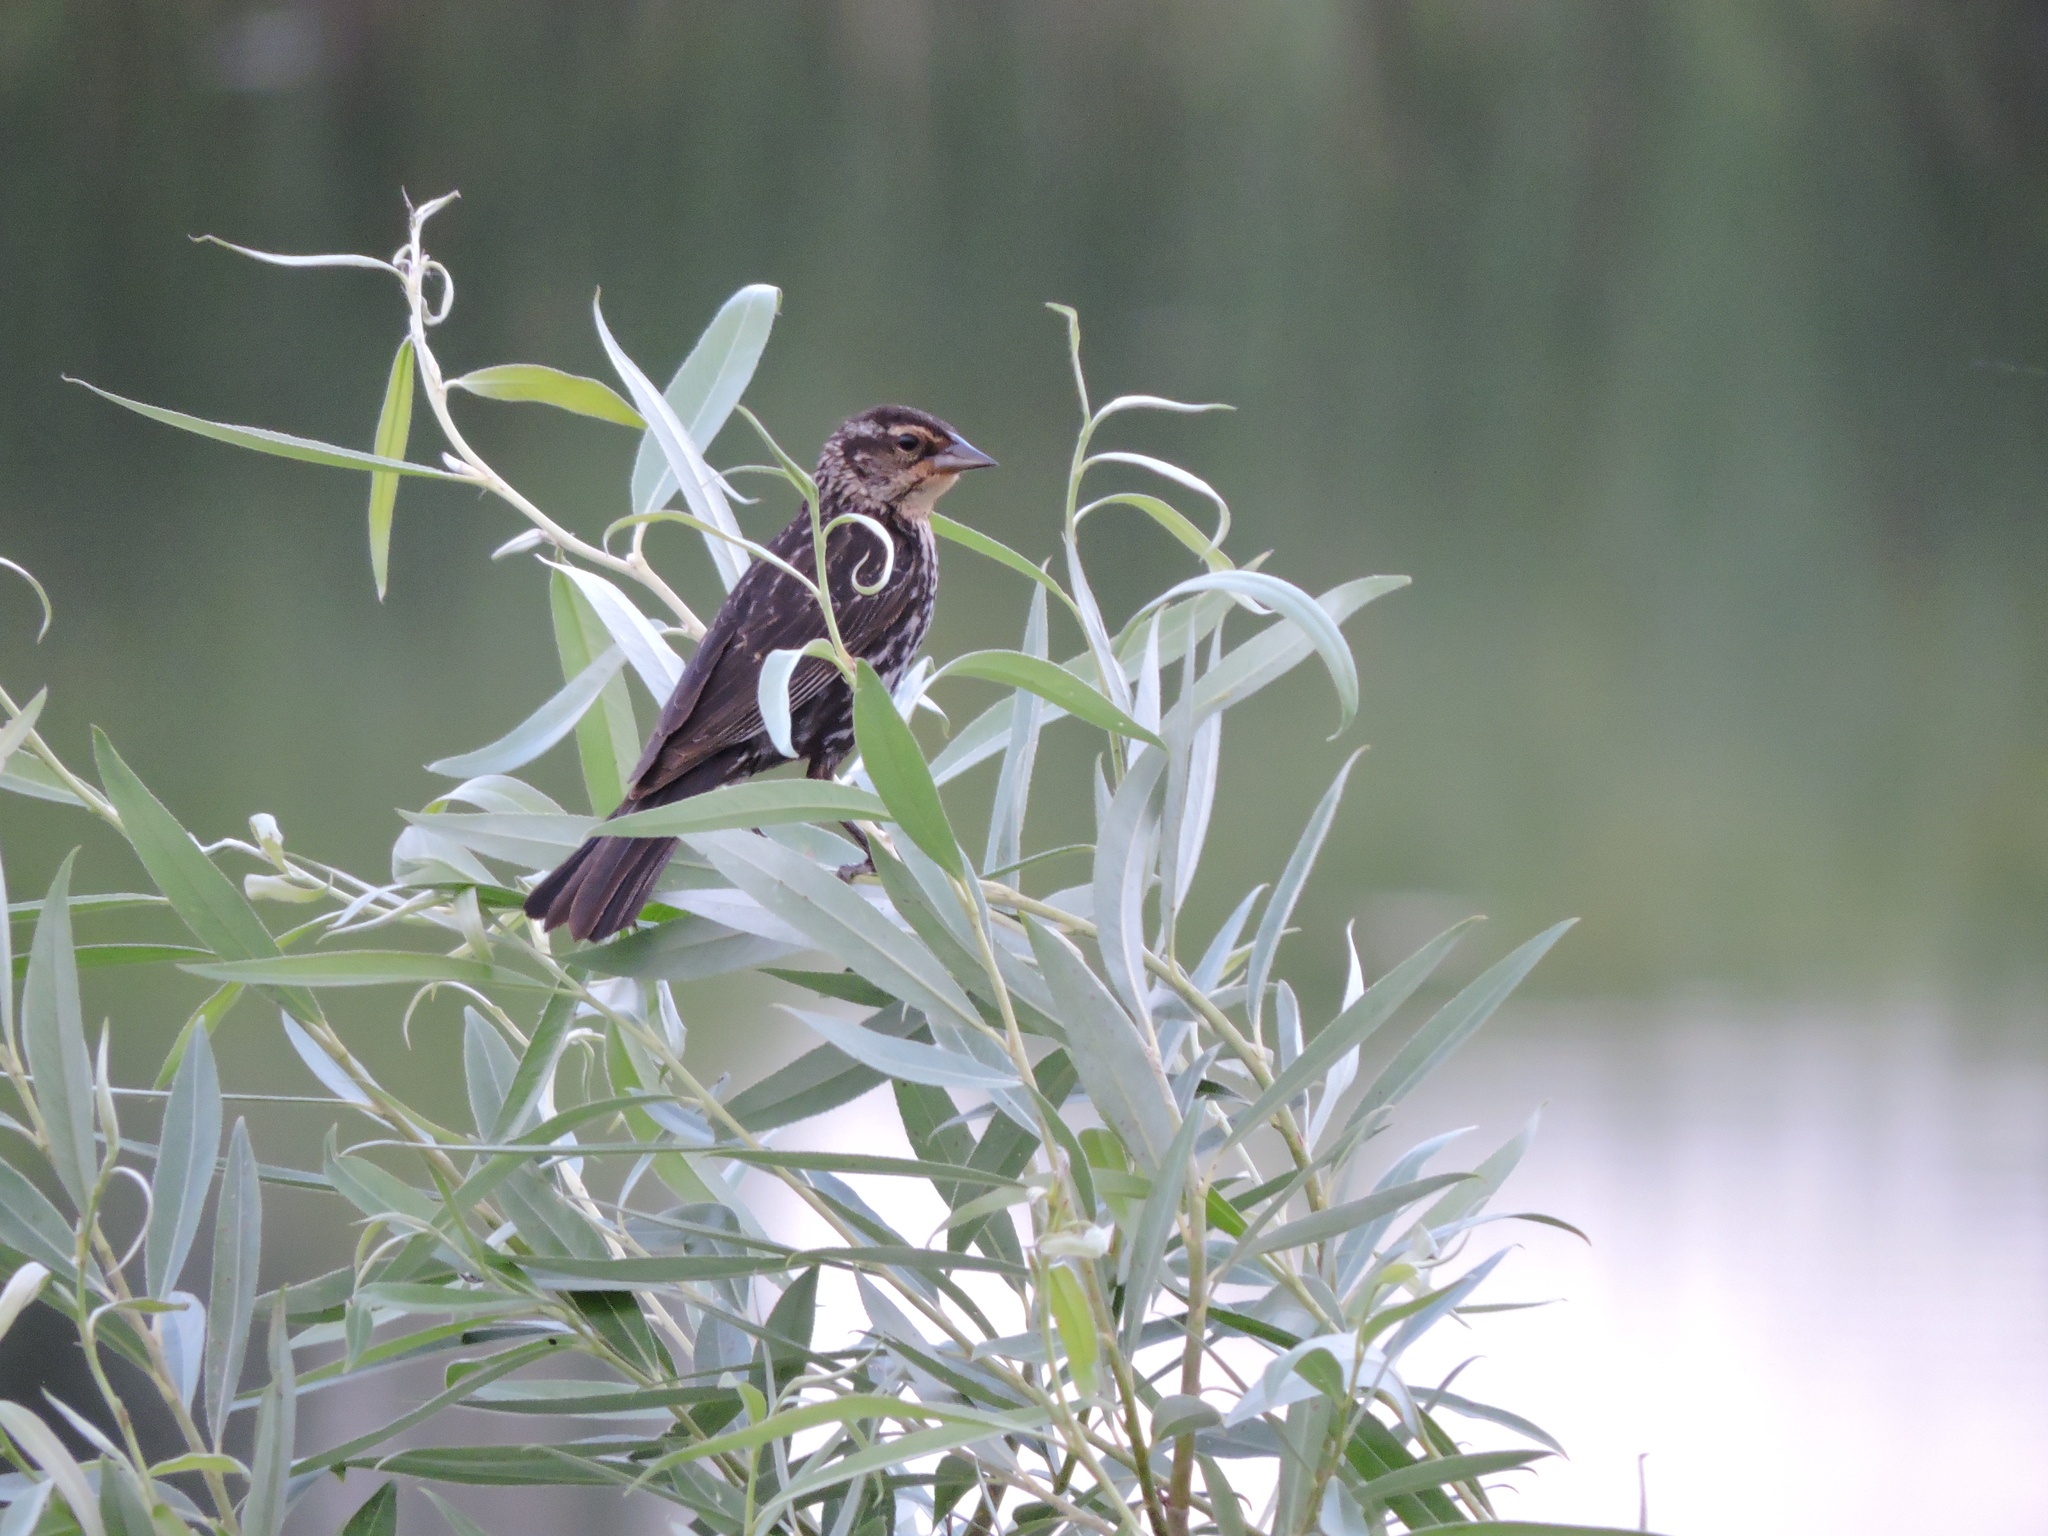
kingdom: Animalia
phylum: Chordata
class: Aves
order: Passeriformes
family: Icteridae
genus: Agelaius
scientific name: Agelaius phoeniceus
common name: Red-winged blackbird
